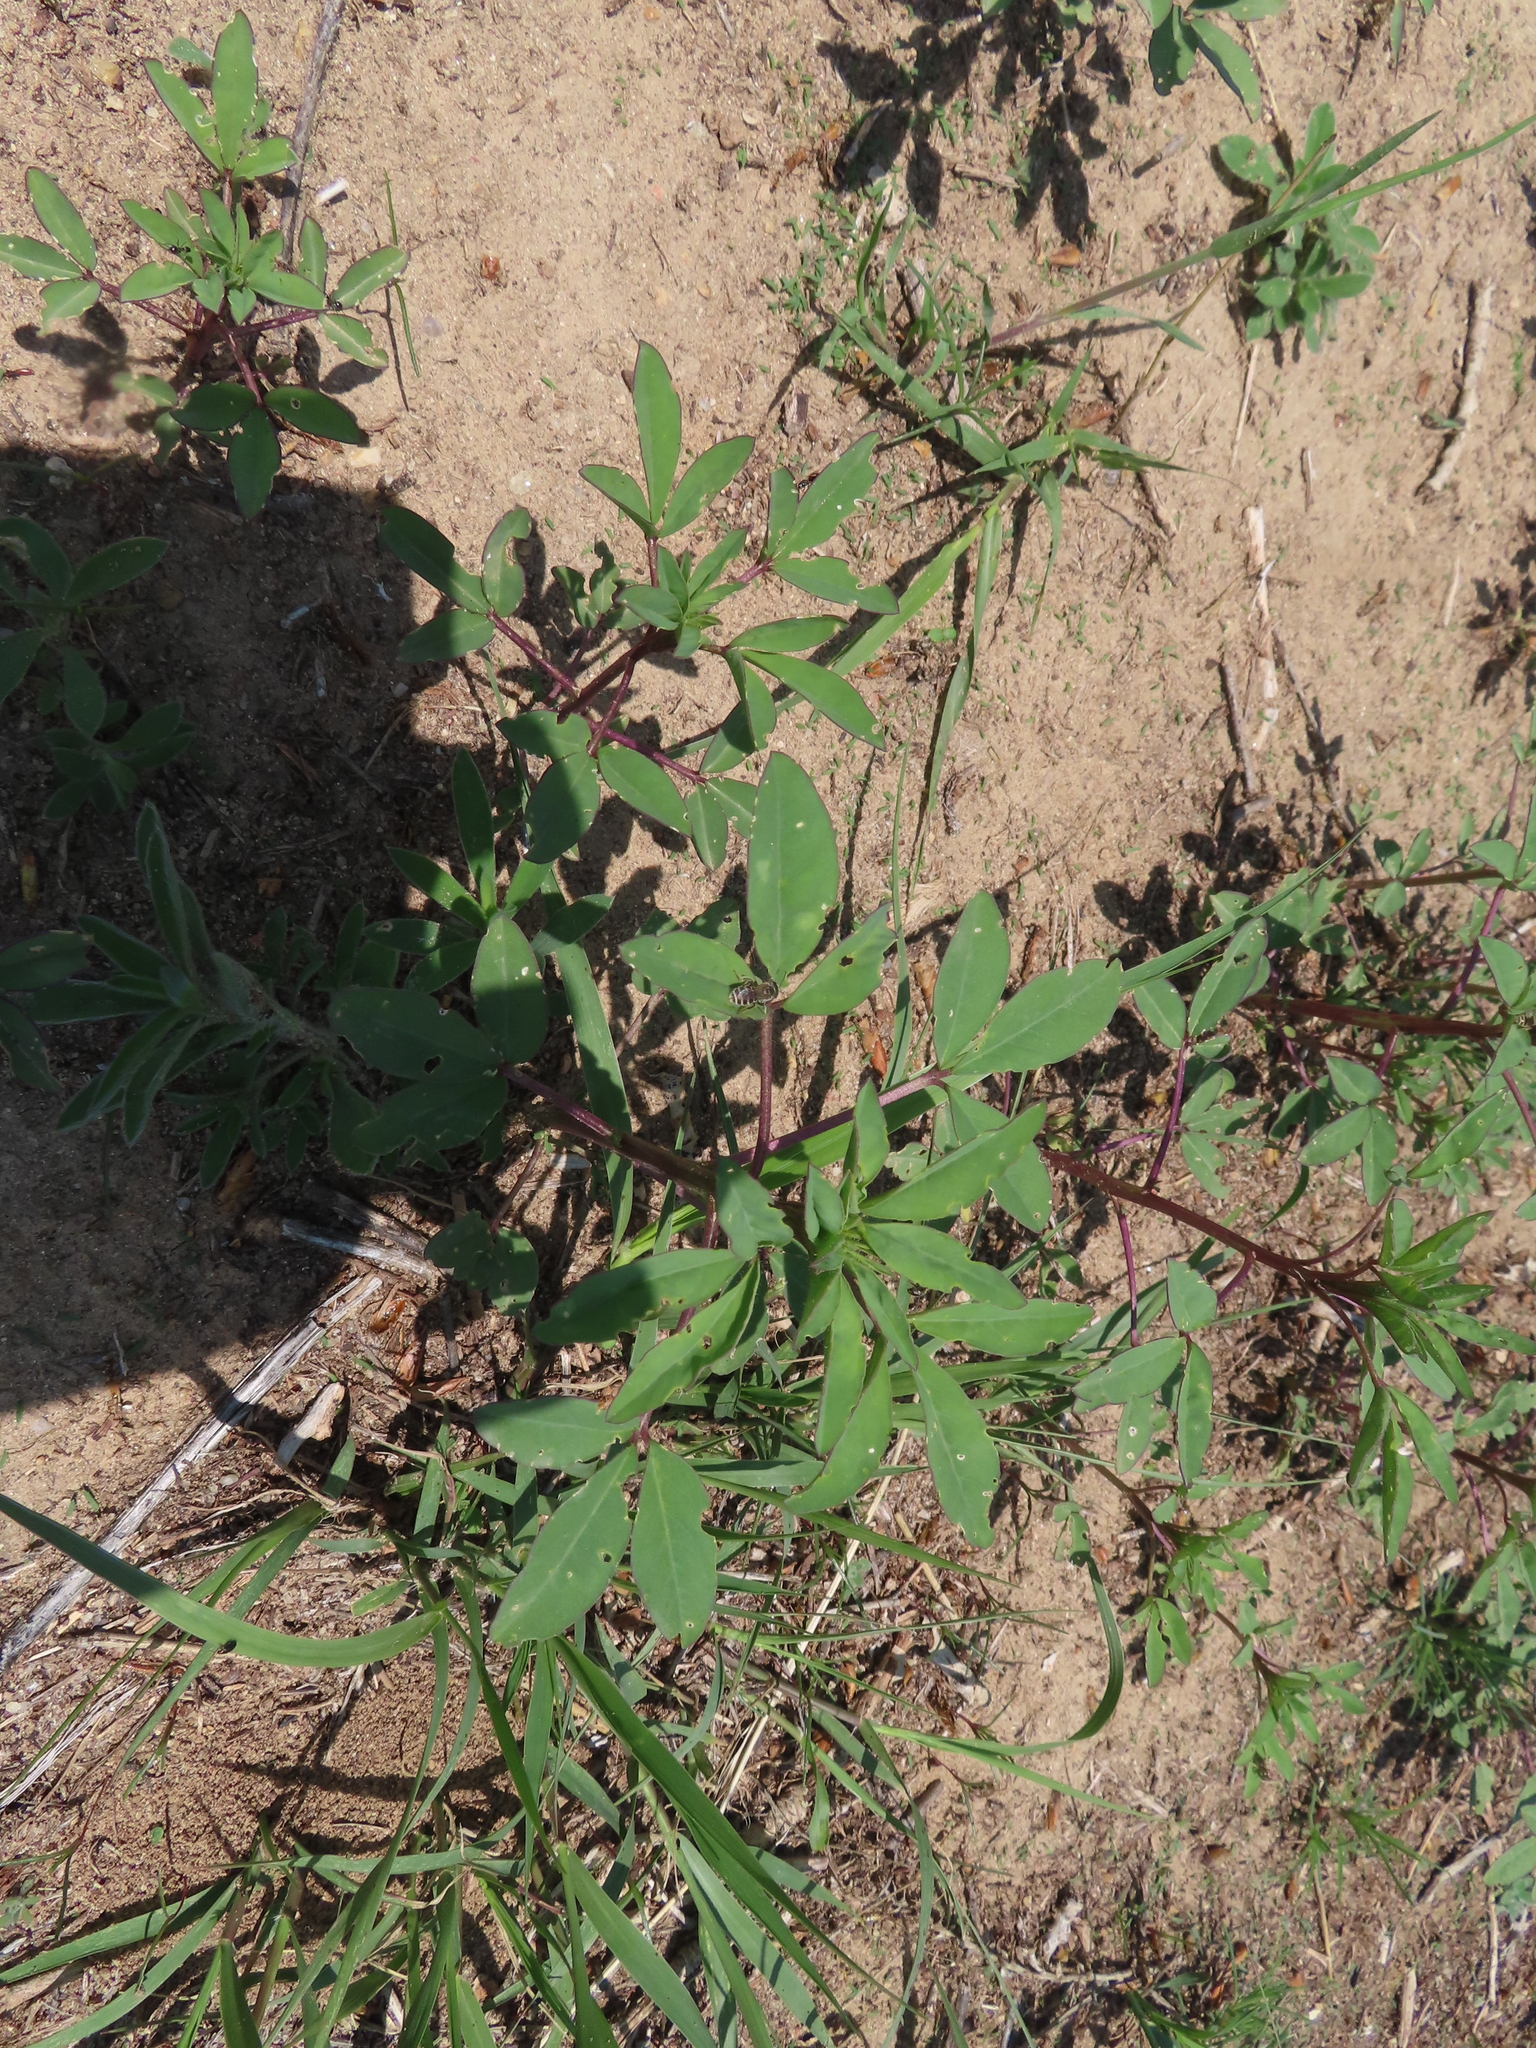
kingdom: Plantae
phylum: Tracheophyta
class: Magnoliopsida
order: Brassicales
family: Cleomaceae
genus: Cleomella
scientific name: Cleomella serrulata
